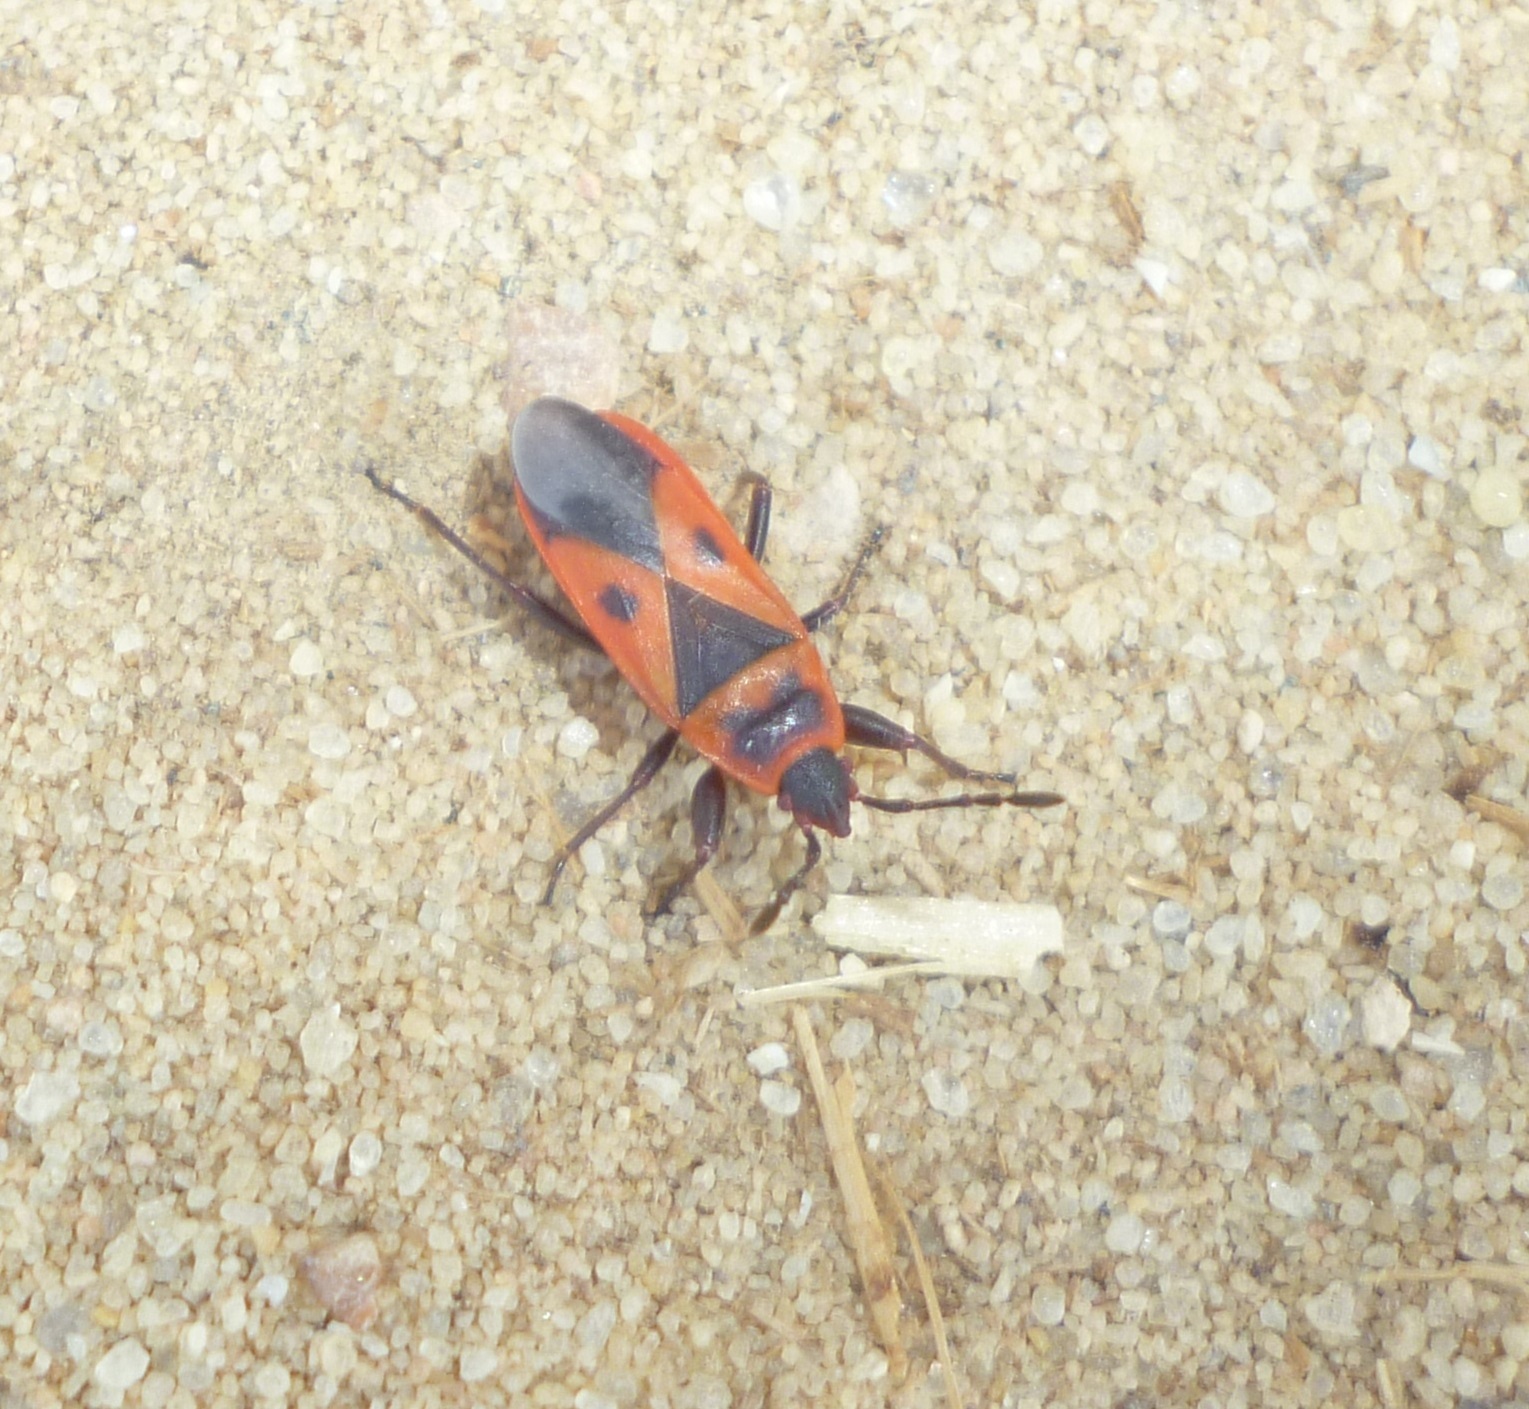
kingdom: Animalia
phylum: Arthropoda
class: Insecta
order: Hemiptera
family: Pyrrhocoridae
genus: Scantius
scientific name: Scantius aegyptius
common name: Red bug
